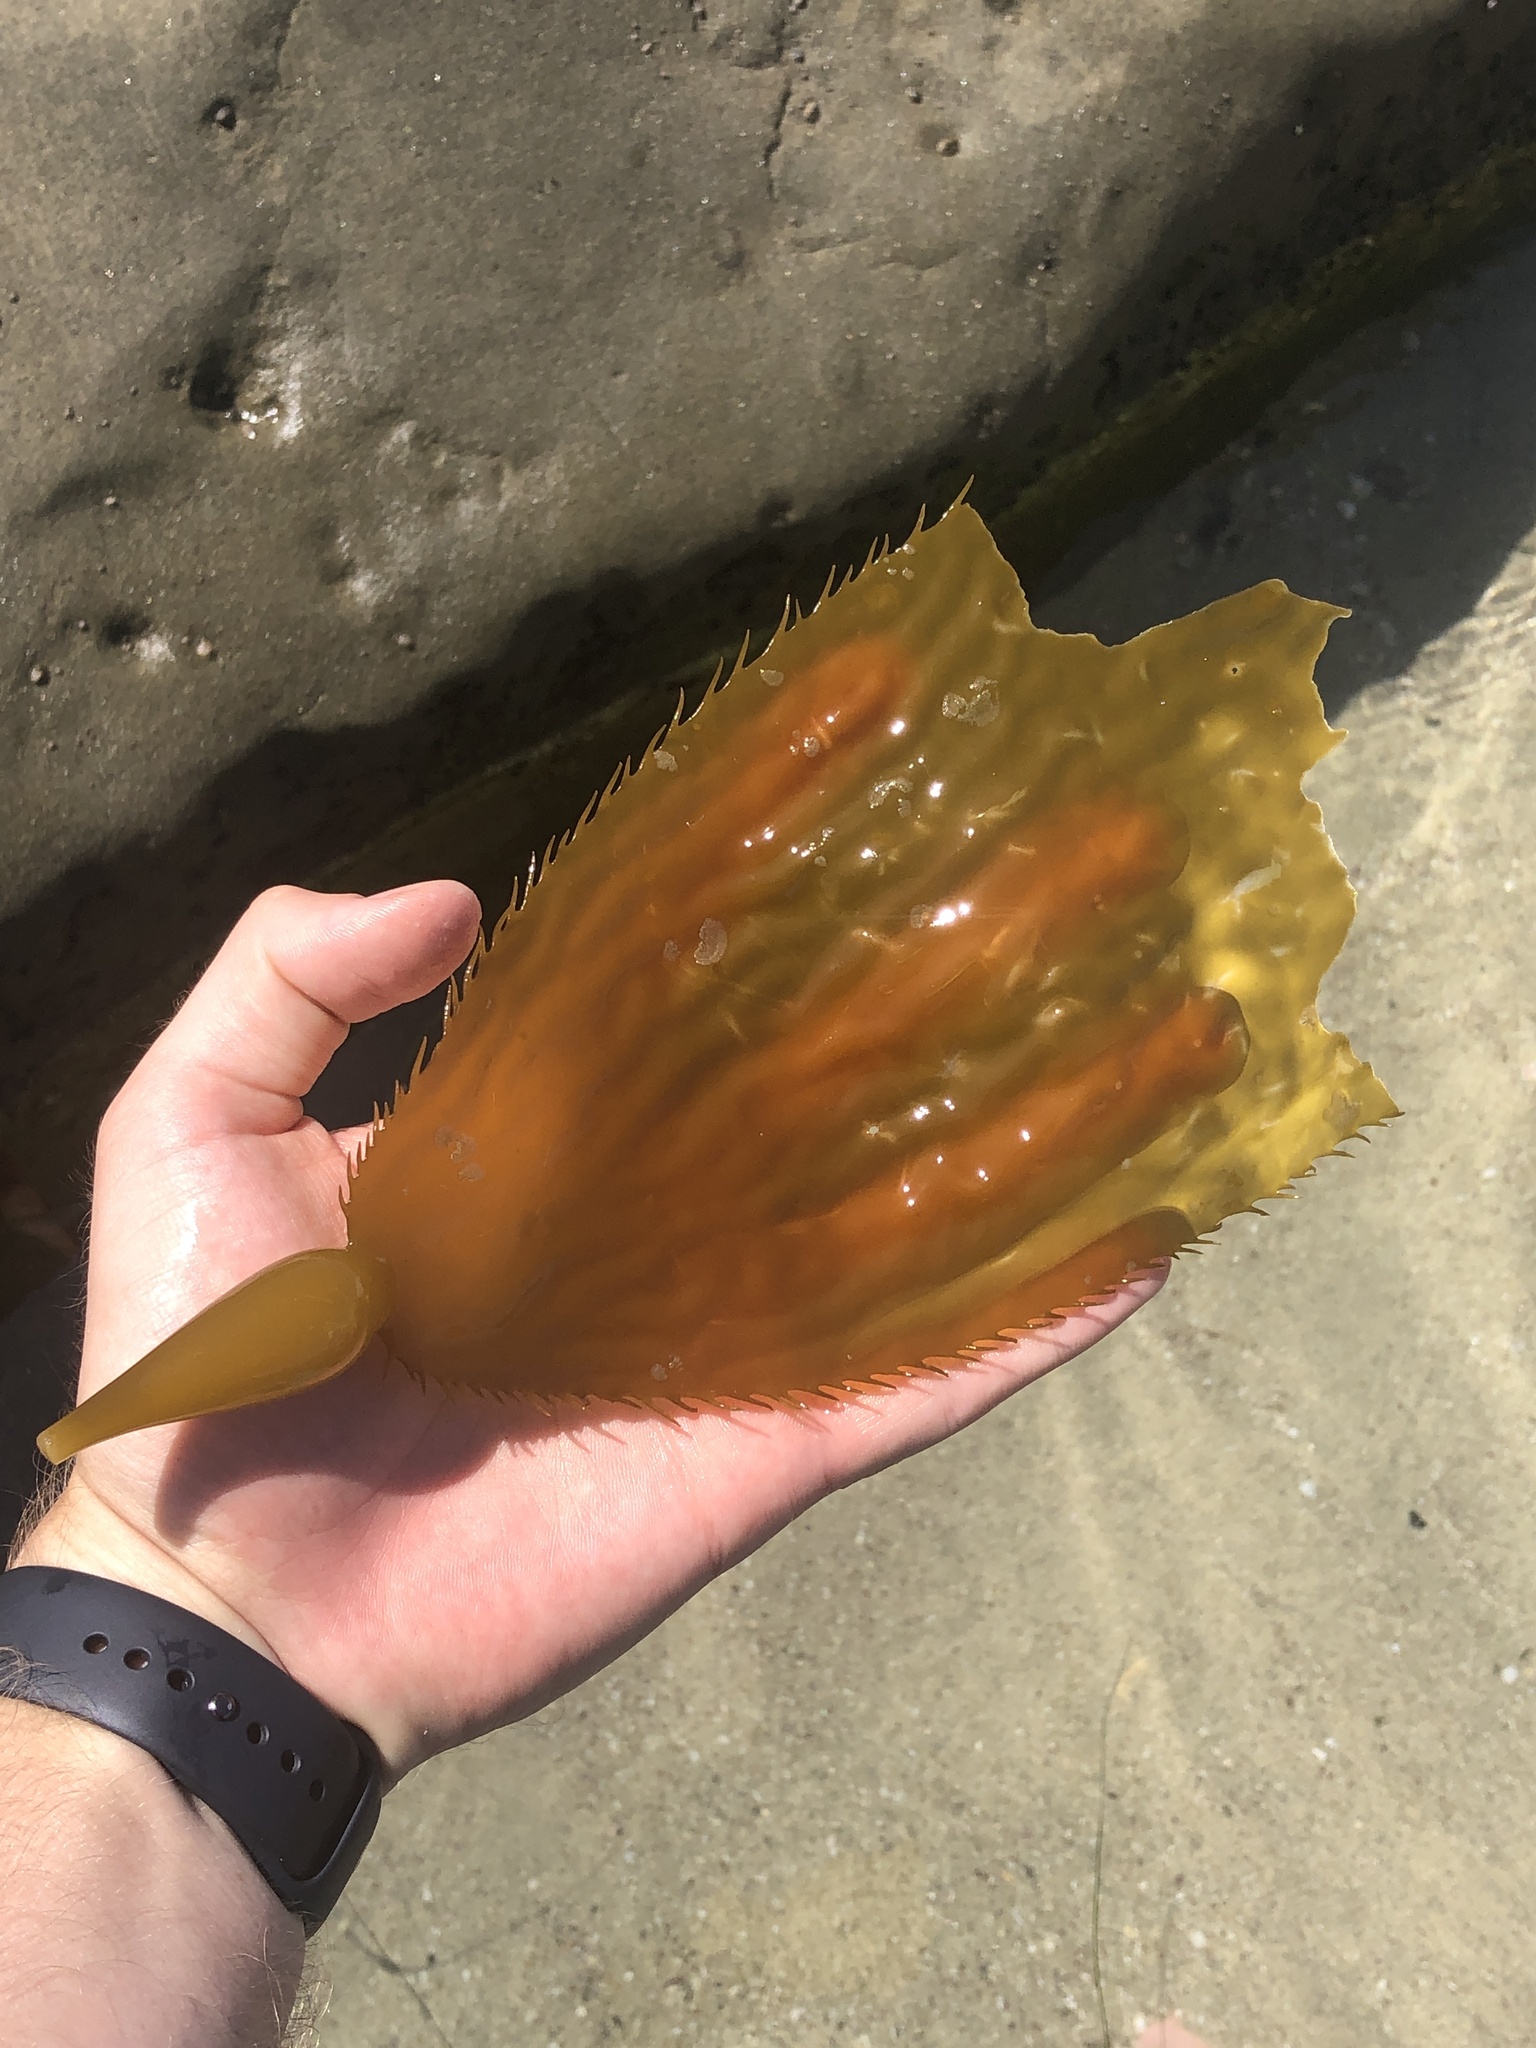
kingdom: Chromista
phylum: Ochrophyta
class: Phaeophyceae
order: Laminariales
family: Laminariaceae
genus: Macrocystis
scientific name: Macrocystis pyrifera
